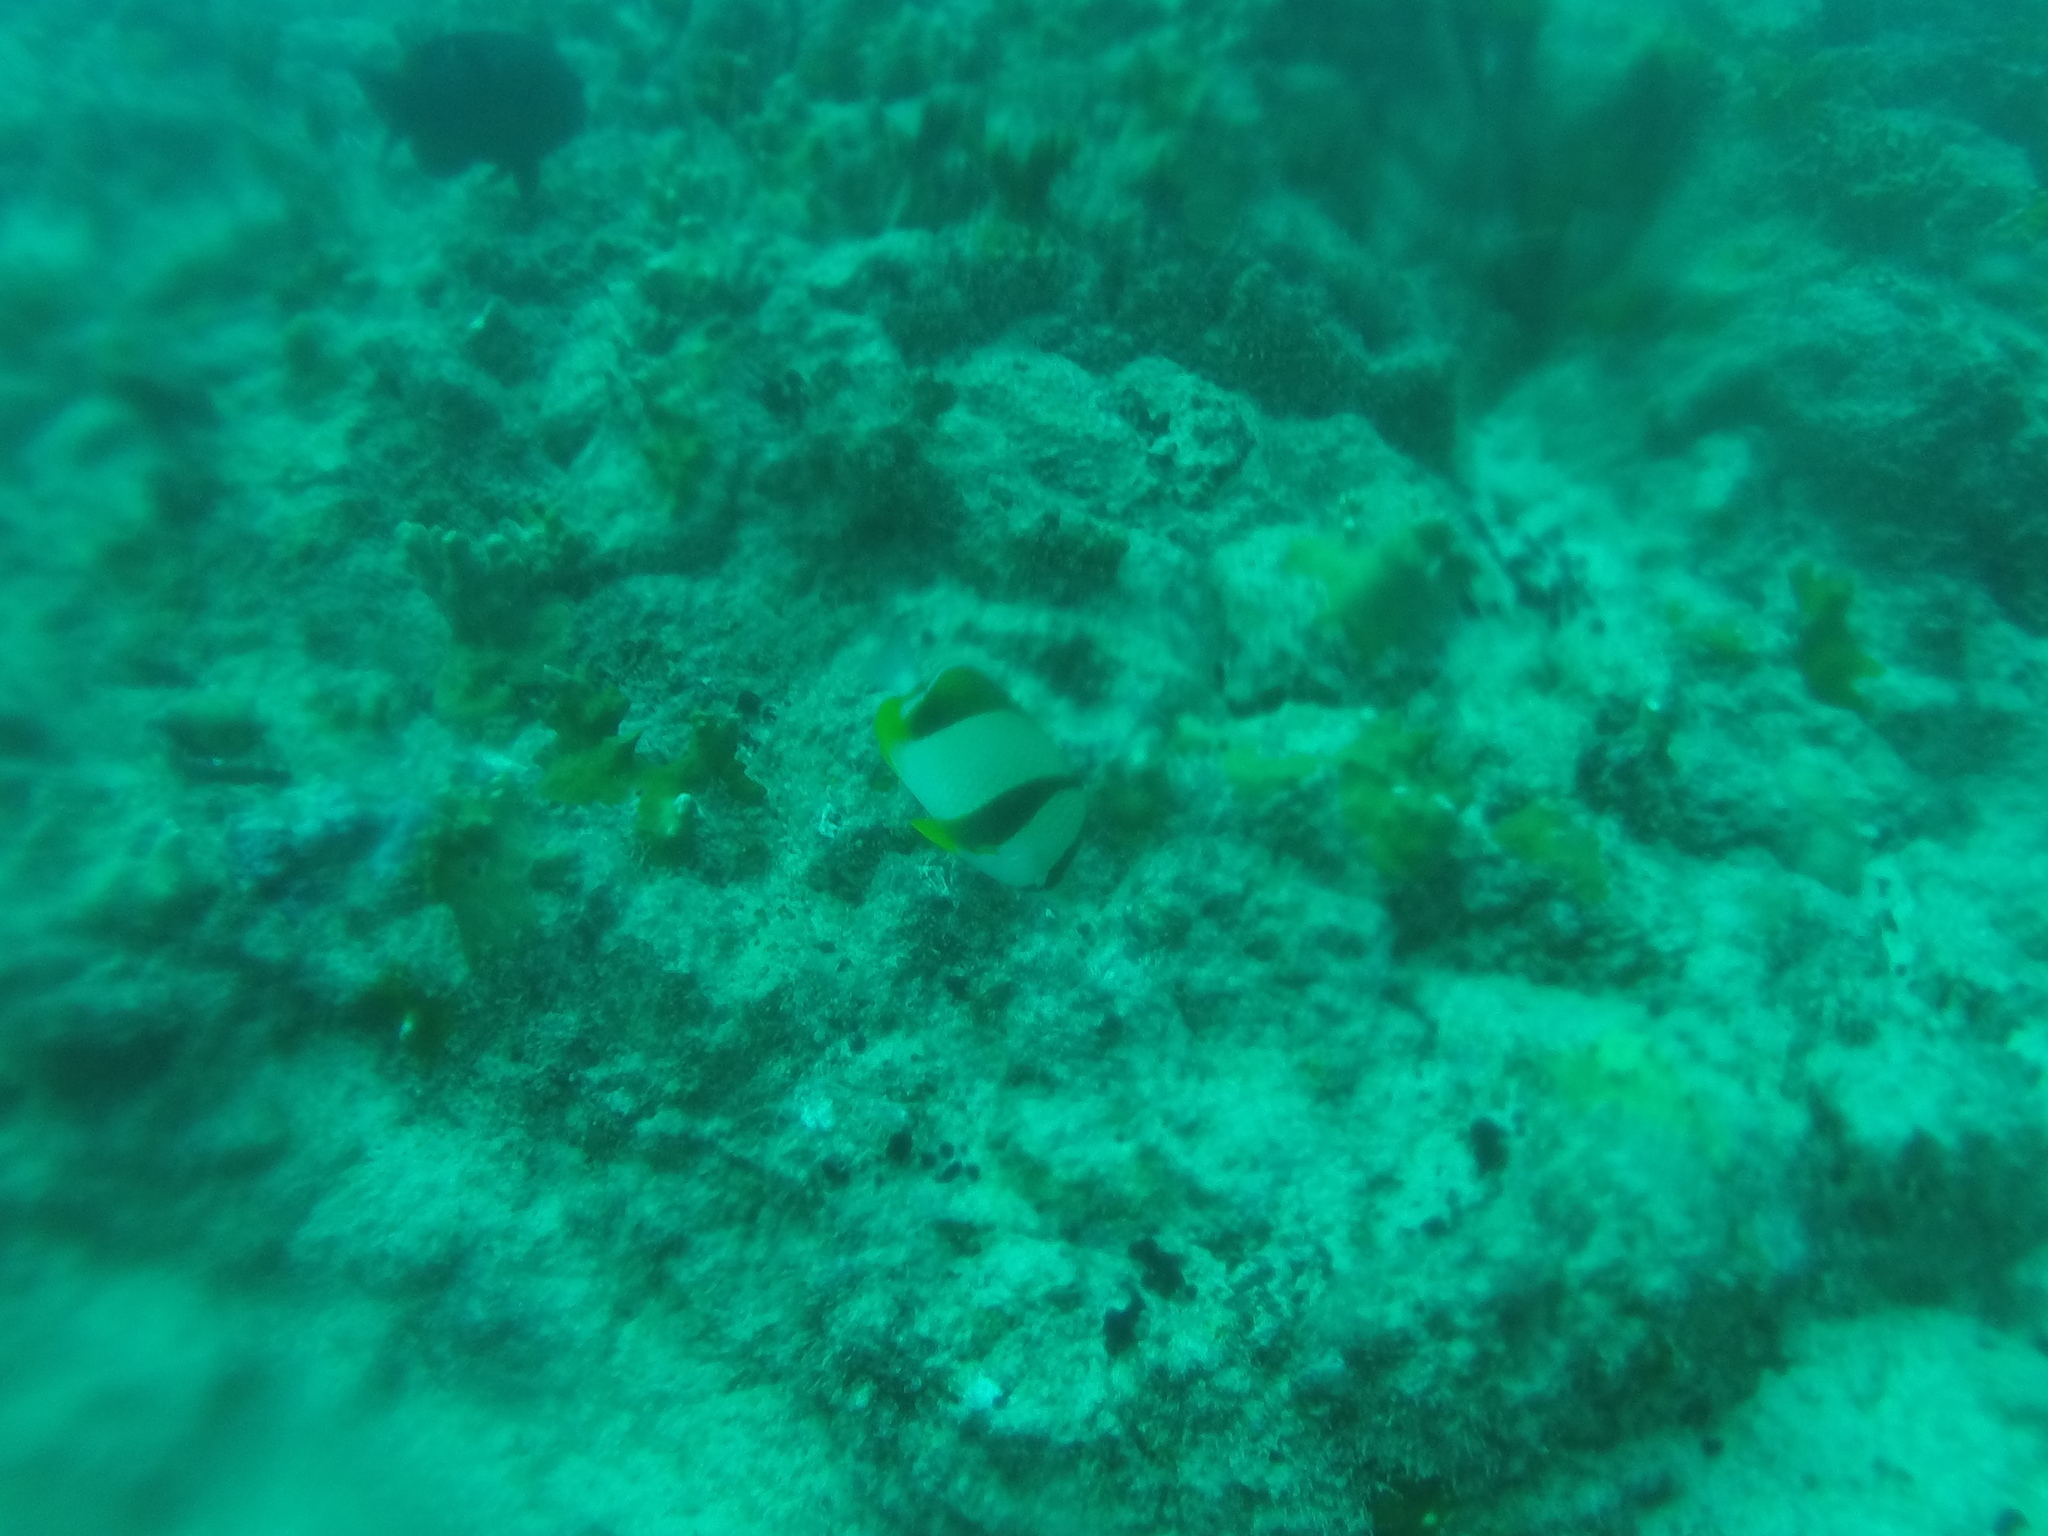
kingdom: Animalia
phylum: Chordata
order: Perciformes
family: Chaetodontidae
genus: Chaetodon
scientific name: Chaetodon robustus
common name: Three-banded butterflyfish
